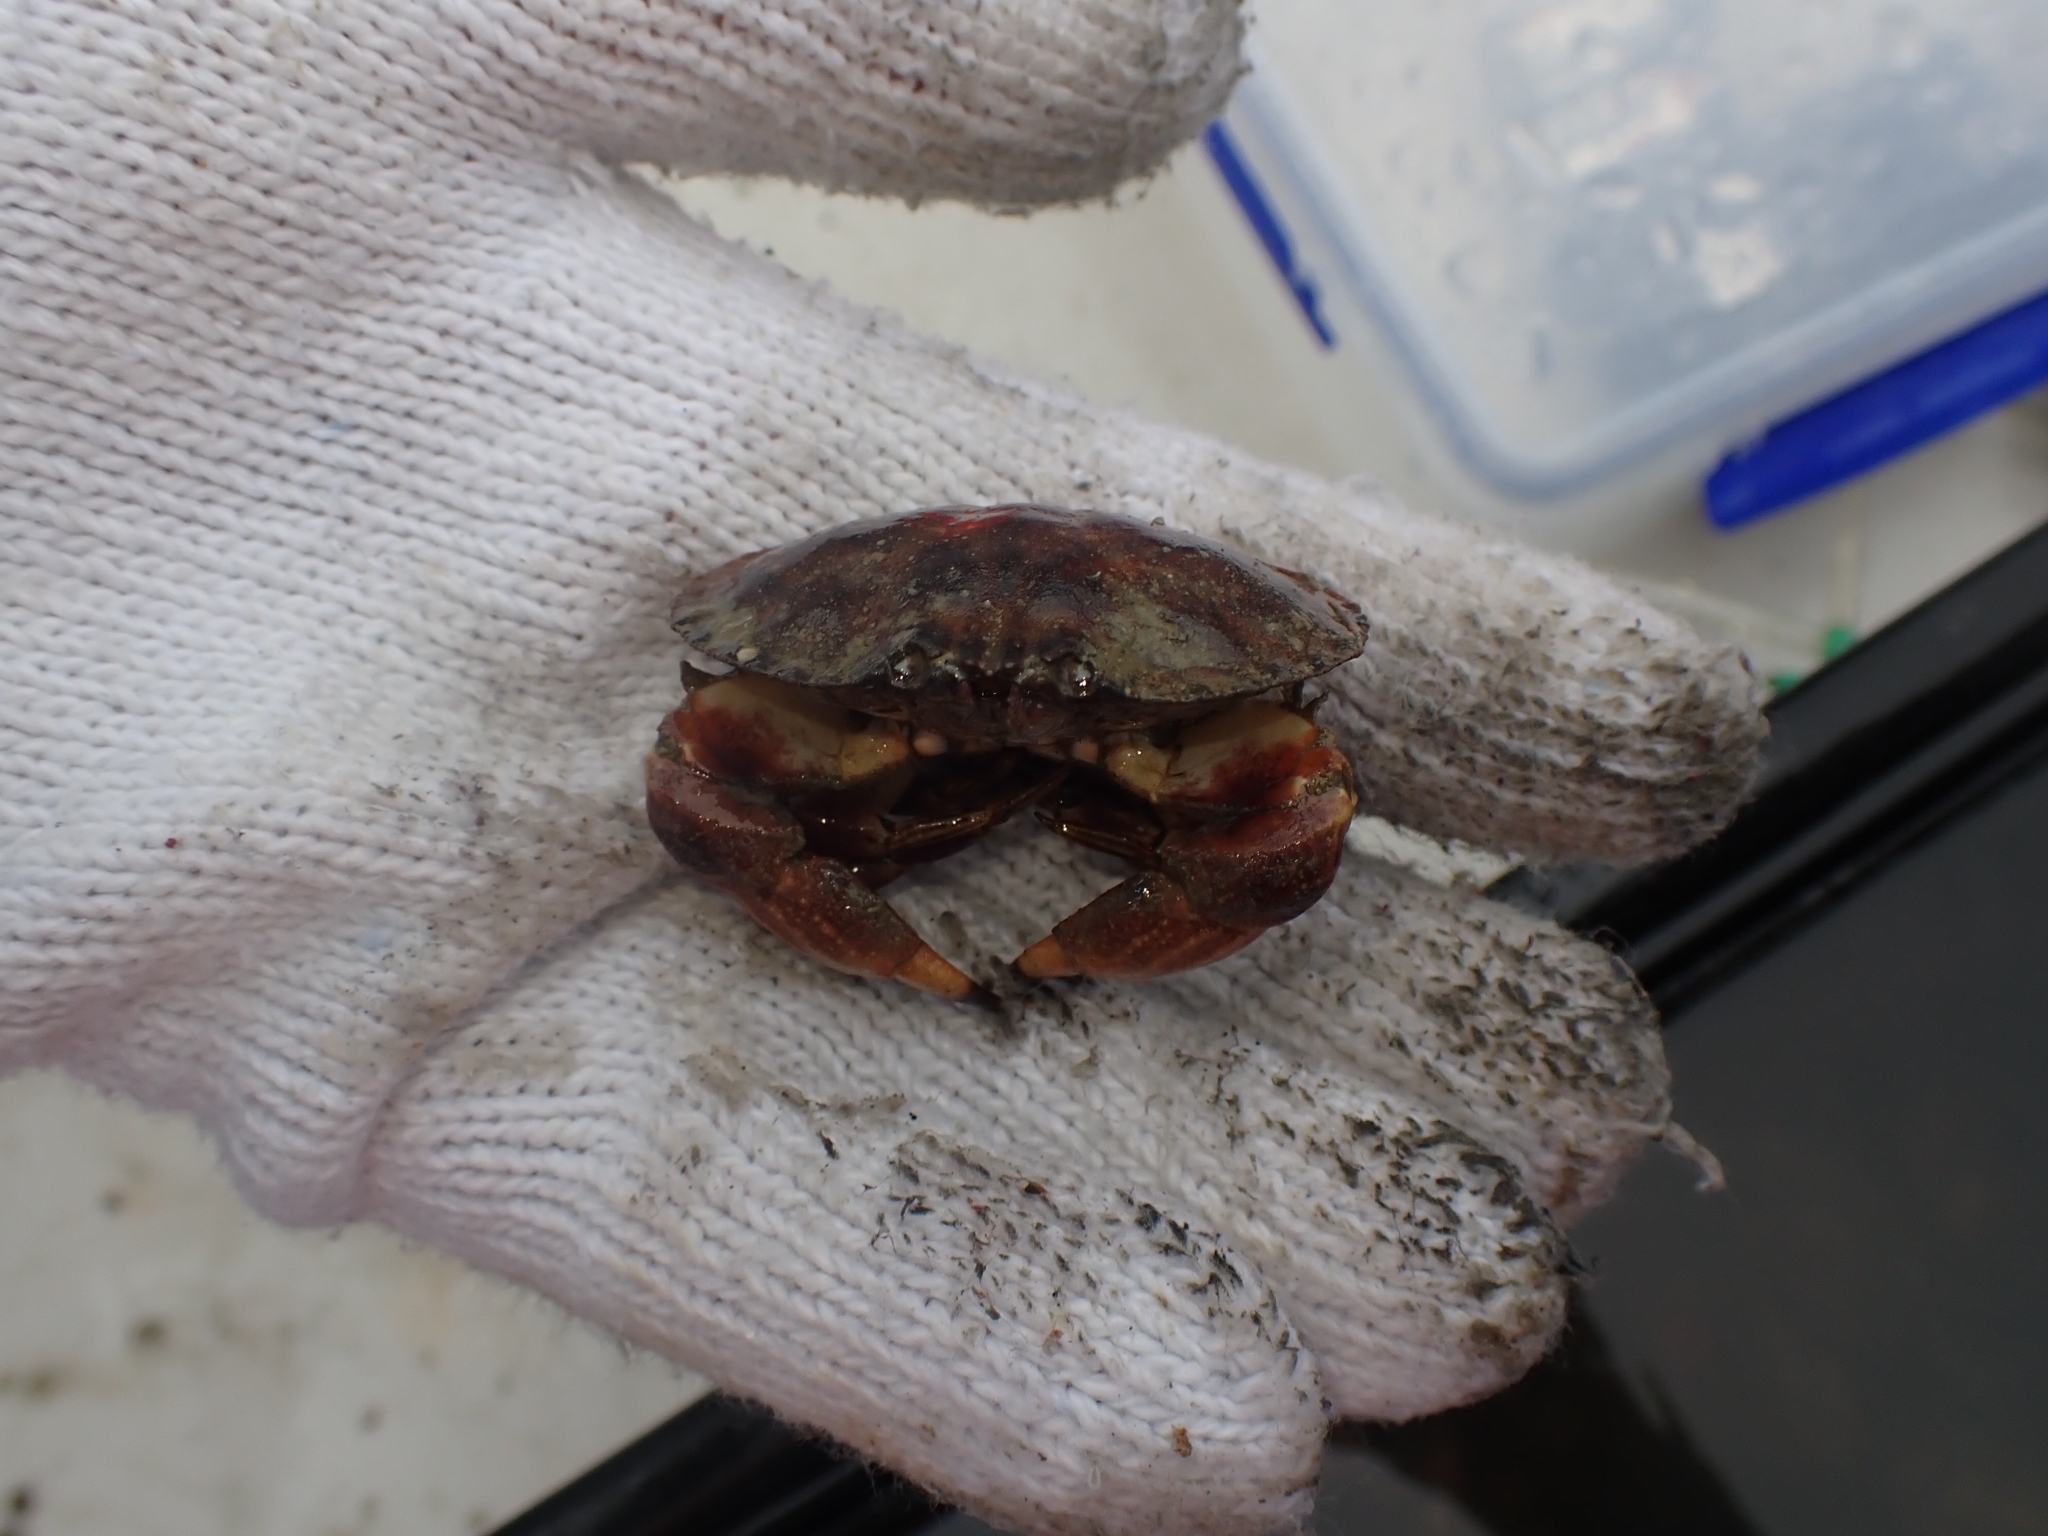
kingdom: Animalia
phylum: Arthropoda
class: Malacostraca
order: Decapoda
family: Cancridae
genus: Metacarcinus
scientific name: Metacarcinus novaezelandiae
